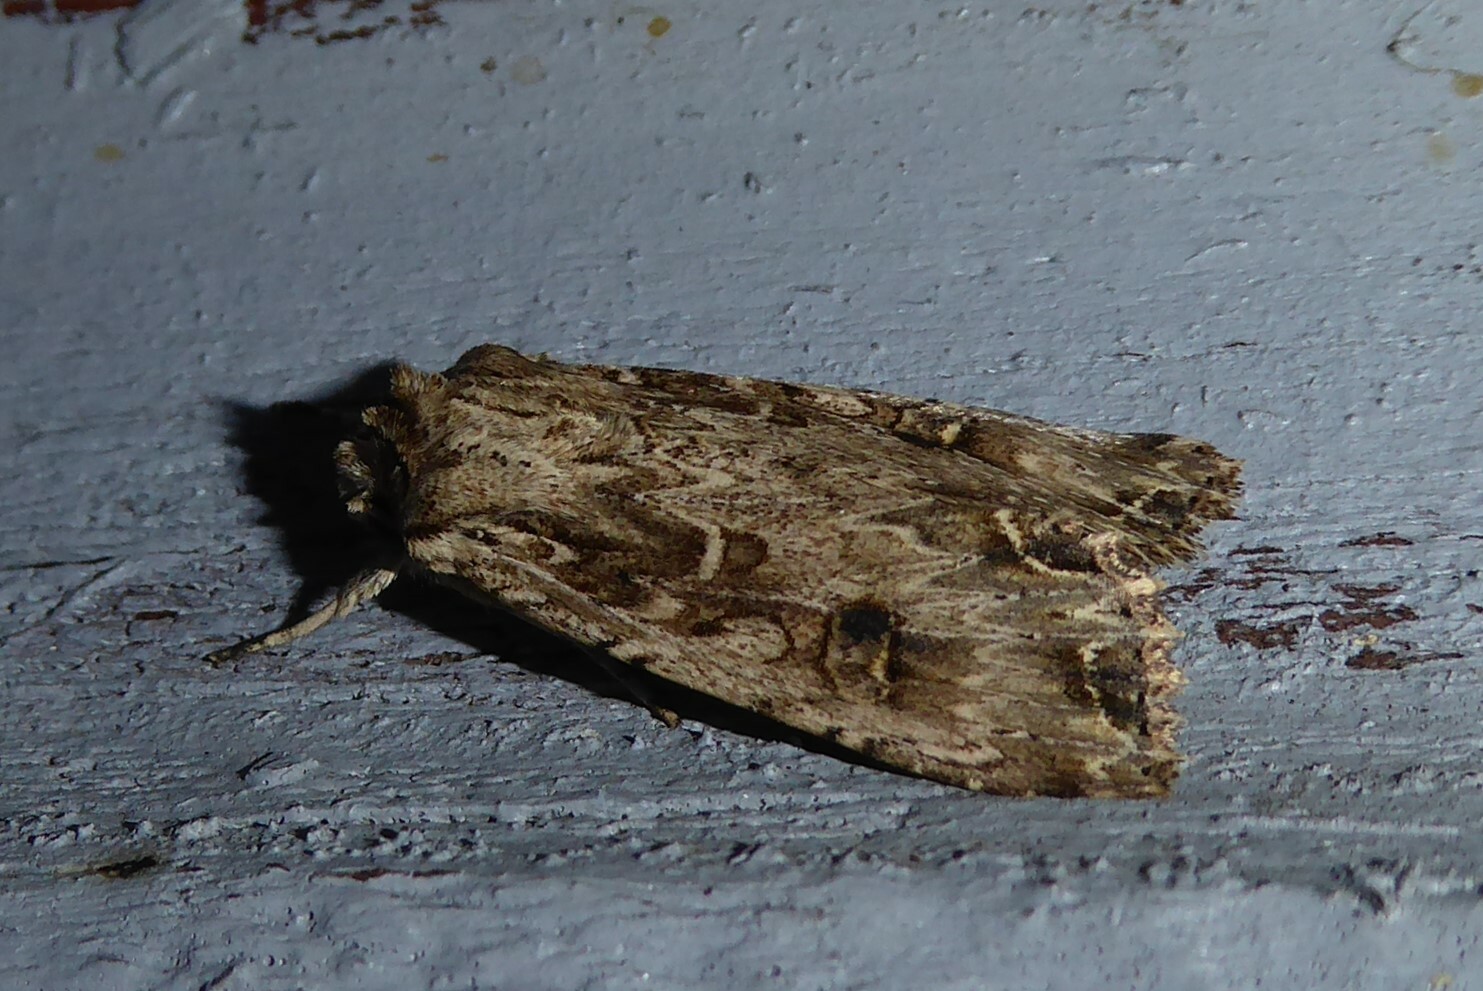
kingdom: Animalia
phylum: Arthropoda
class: Insecta
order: Lepidoptera
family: Noctuidae
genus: Ichneutica
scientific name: Ichneutica lignana
